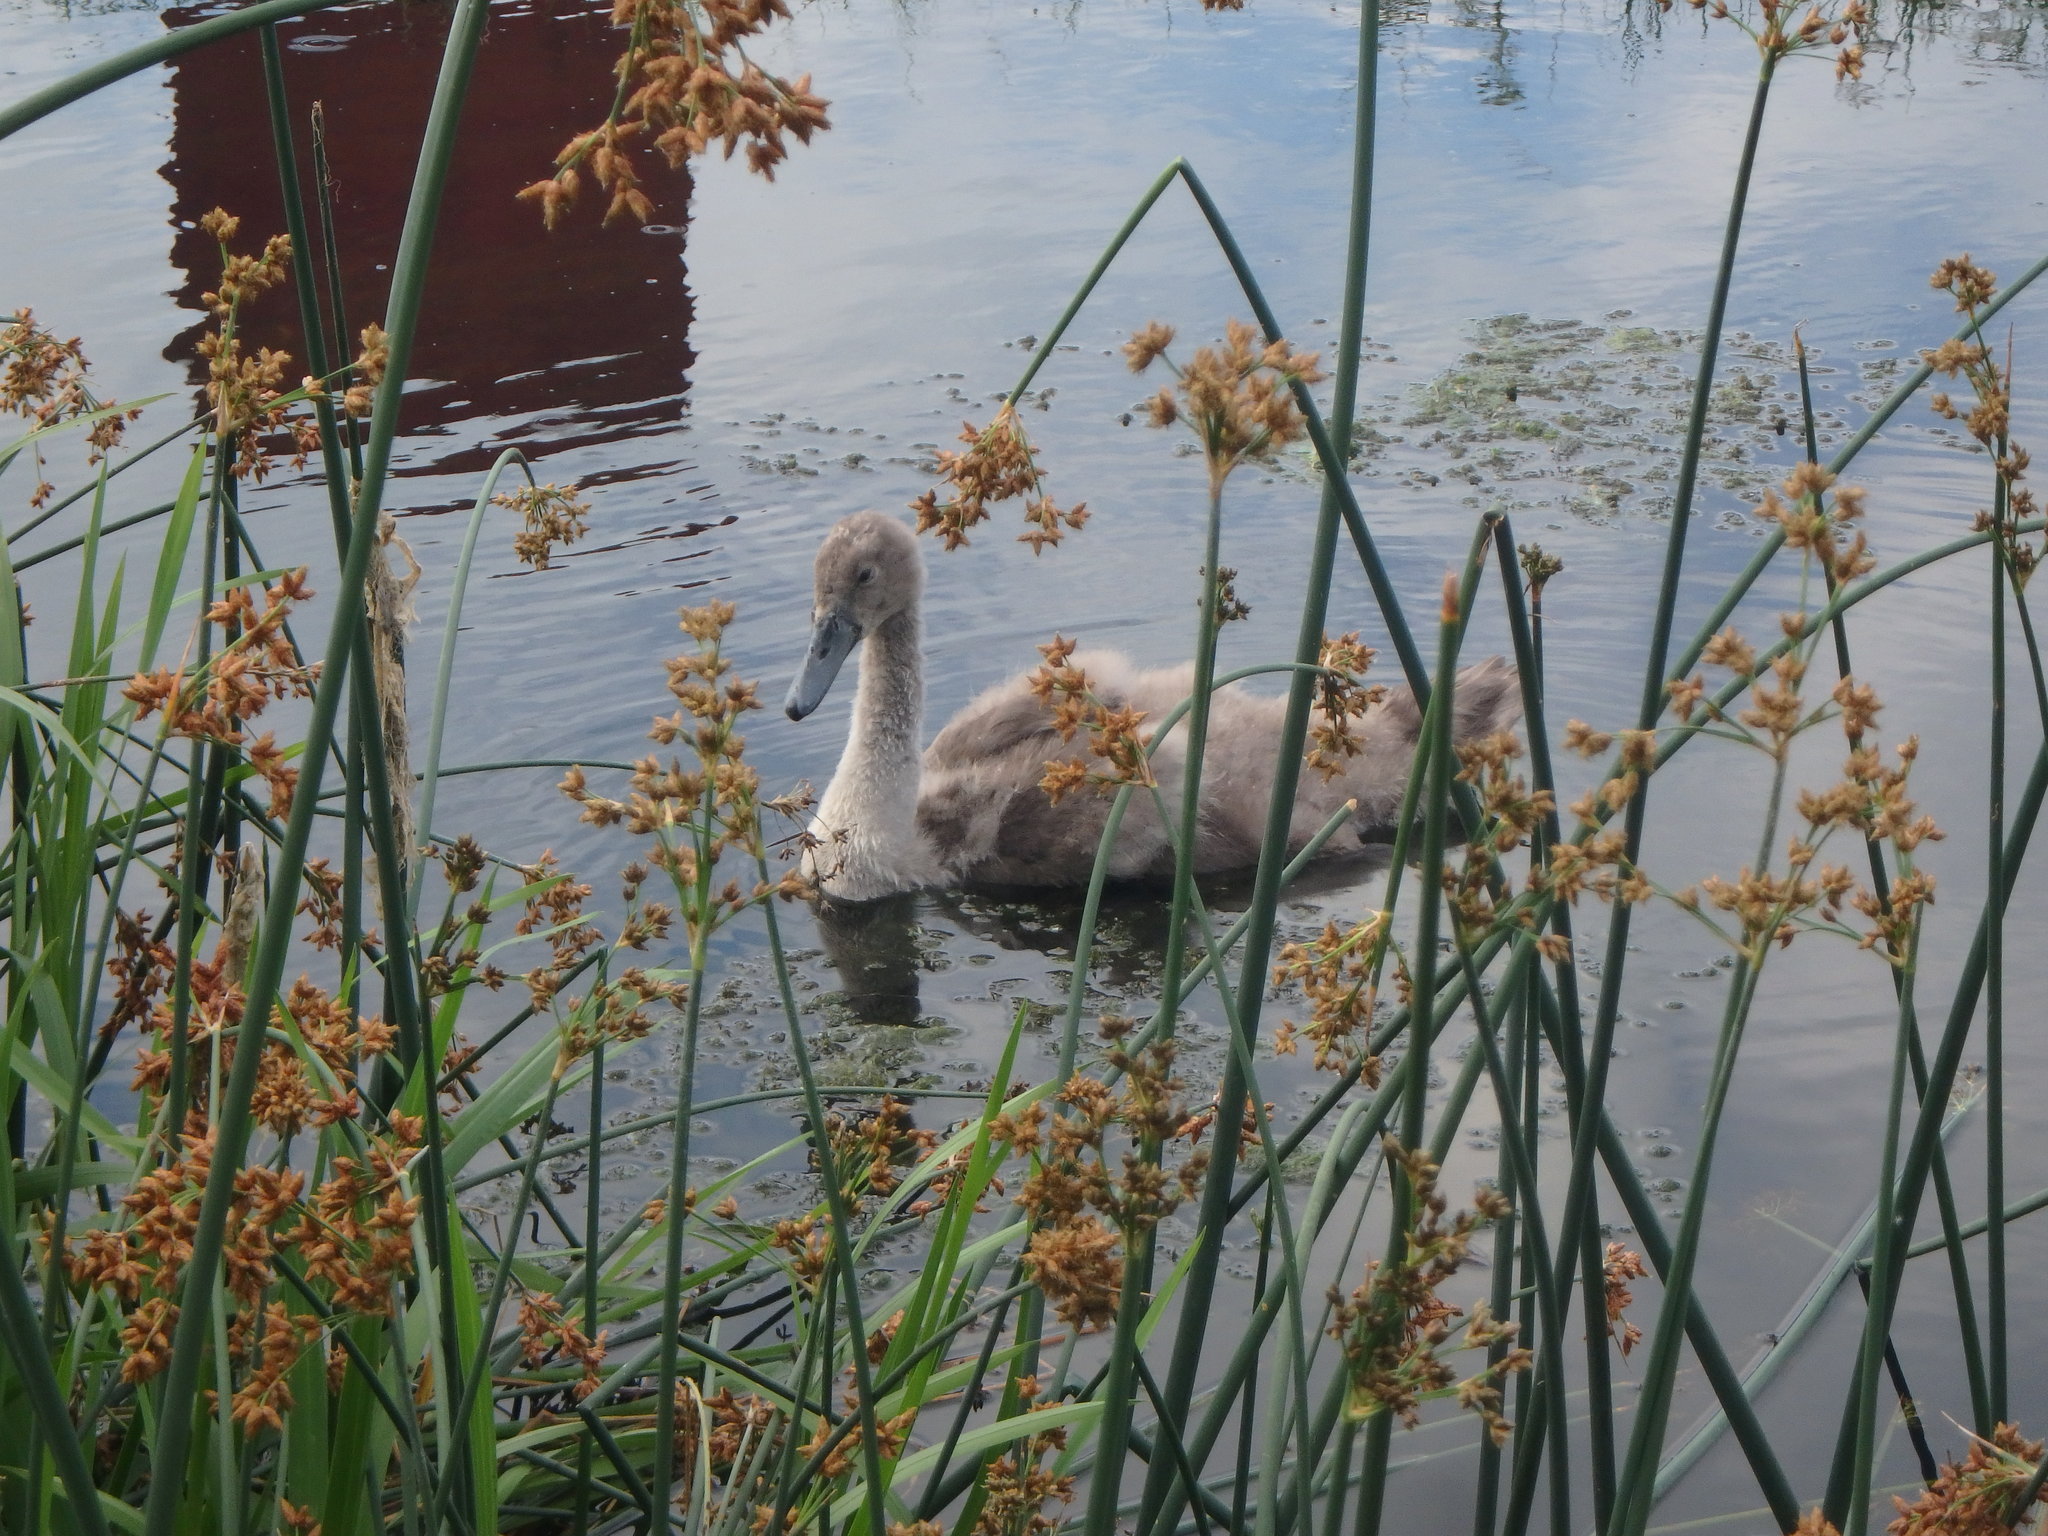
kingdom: Animalia
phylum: Chordata
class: Aves
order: Anseriformes
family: Anatidae
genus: Cygnus
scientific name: Cygnus olor
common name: Mute swan
